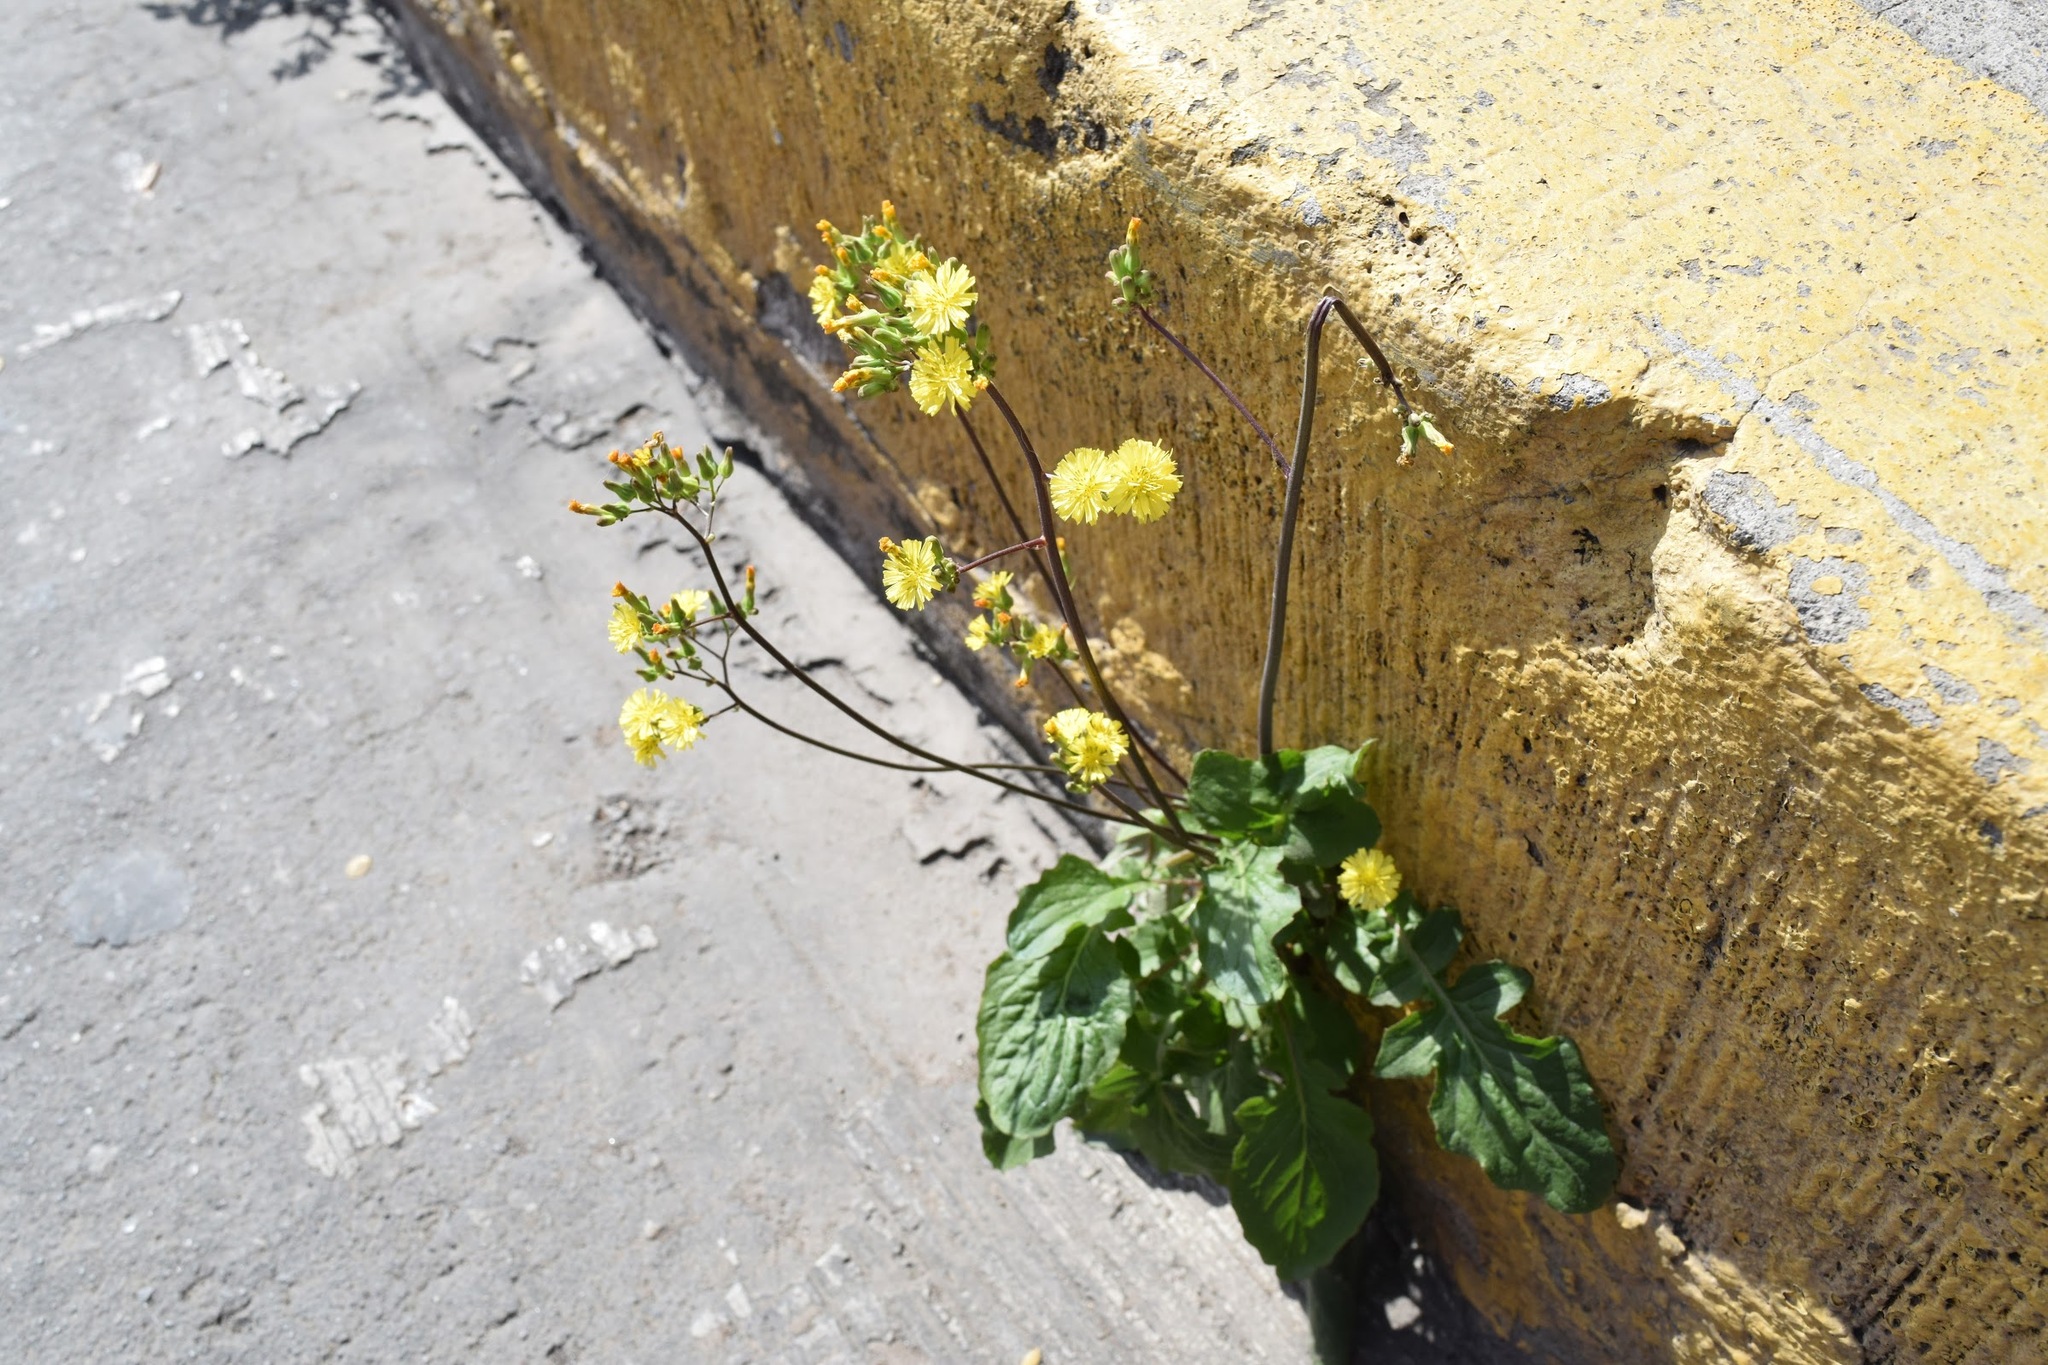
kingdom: Plantae
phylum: Tracheophyta
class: Magnoliopsida
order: Asterales
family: Asteraceae
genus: Youngia
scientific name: Youngia japonica
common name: Oriental false hawksbeard
